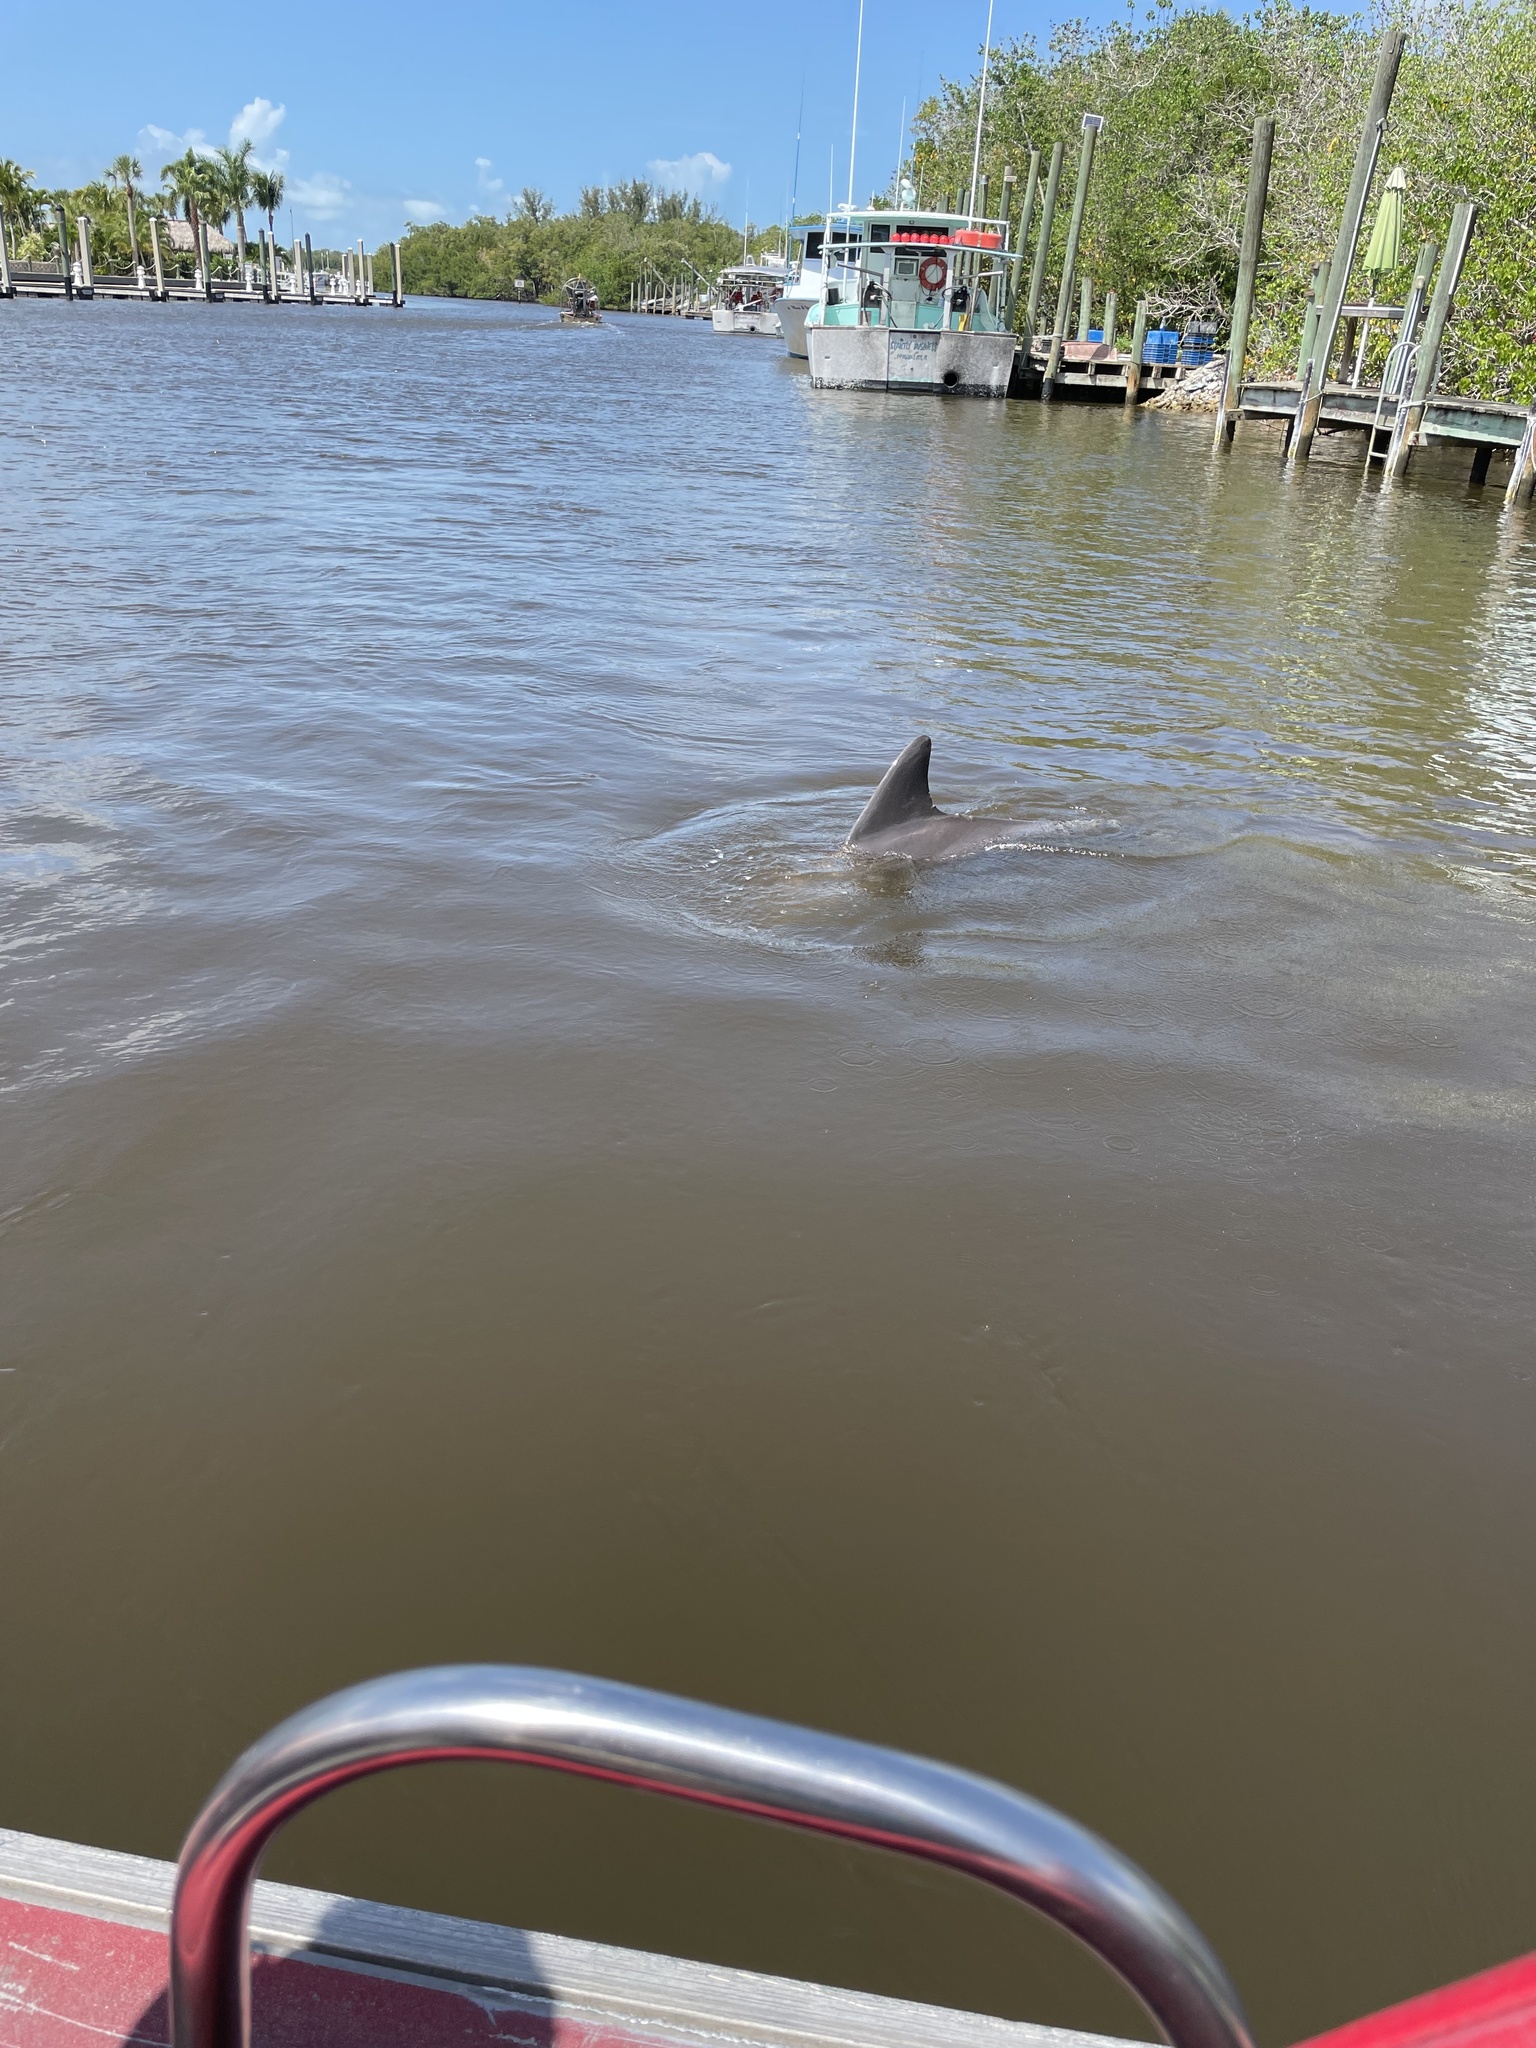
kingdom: Animalia
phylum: Chordata
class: Mammalia
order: Cetacea
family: Delphinidae
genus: Tursiops
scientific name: Tursiops truncatus
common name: Bottlenose dolphin
